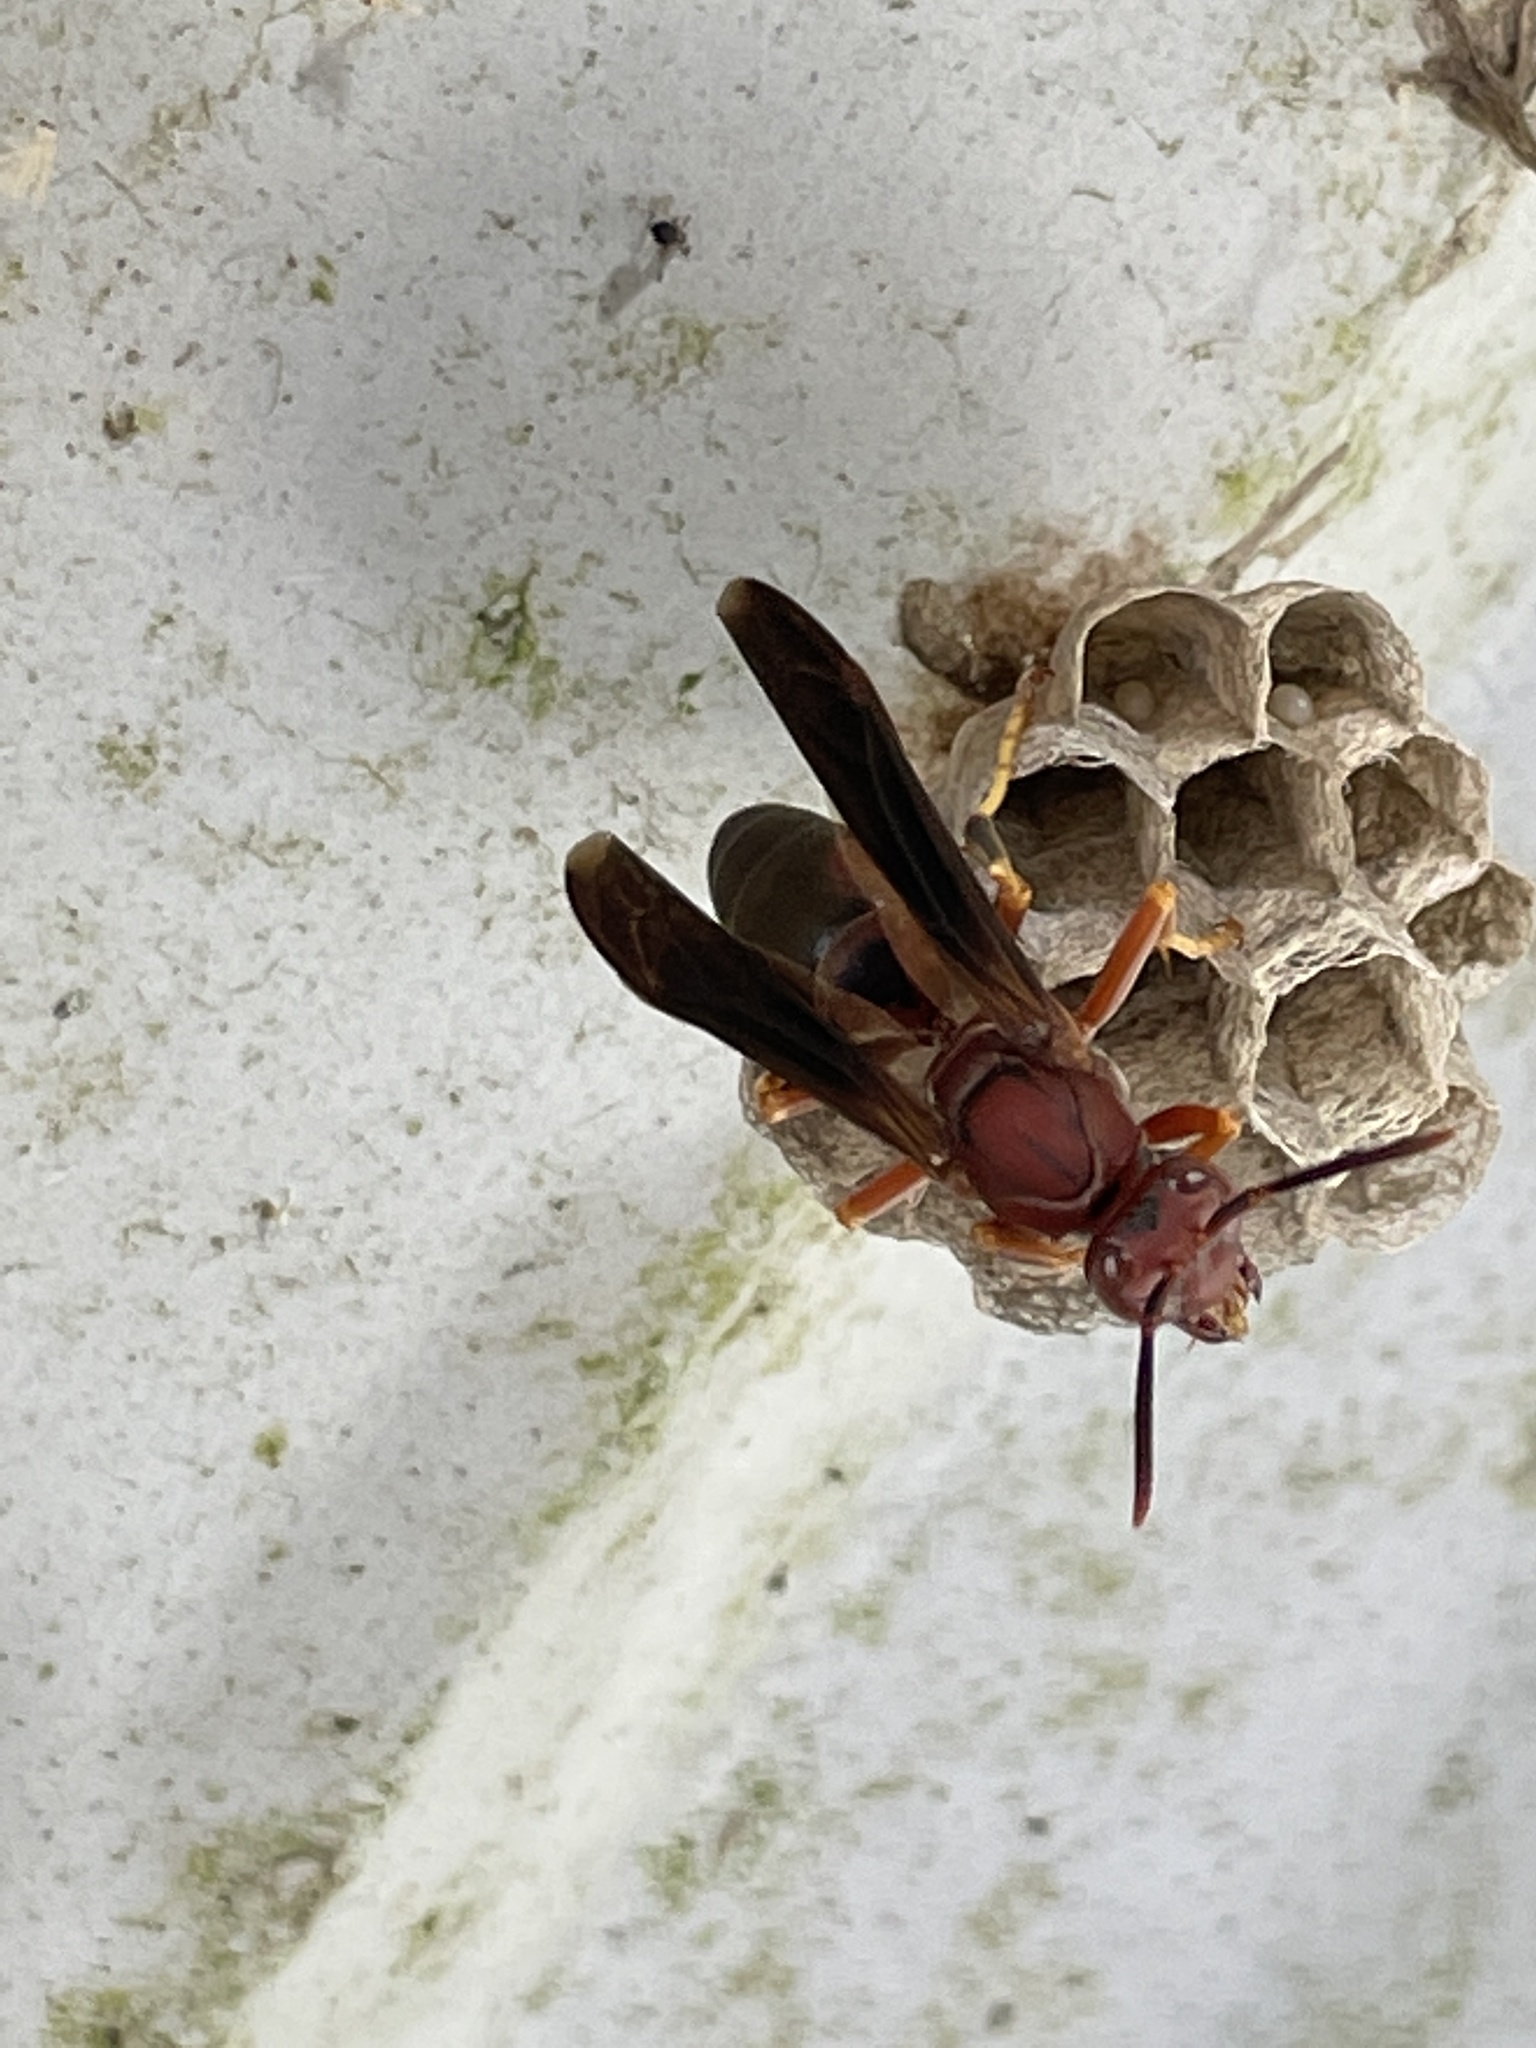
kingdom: Animalia
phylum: Arthropoda
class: Insecta
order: Hymenoptera
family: Eumenidae
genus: Polistes
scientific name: Polistes metricus
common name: Metric paper wasp
